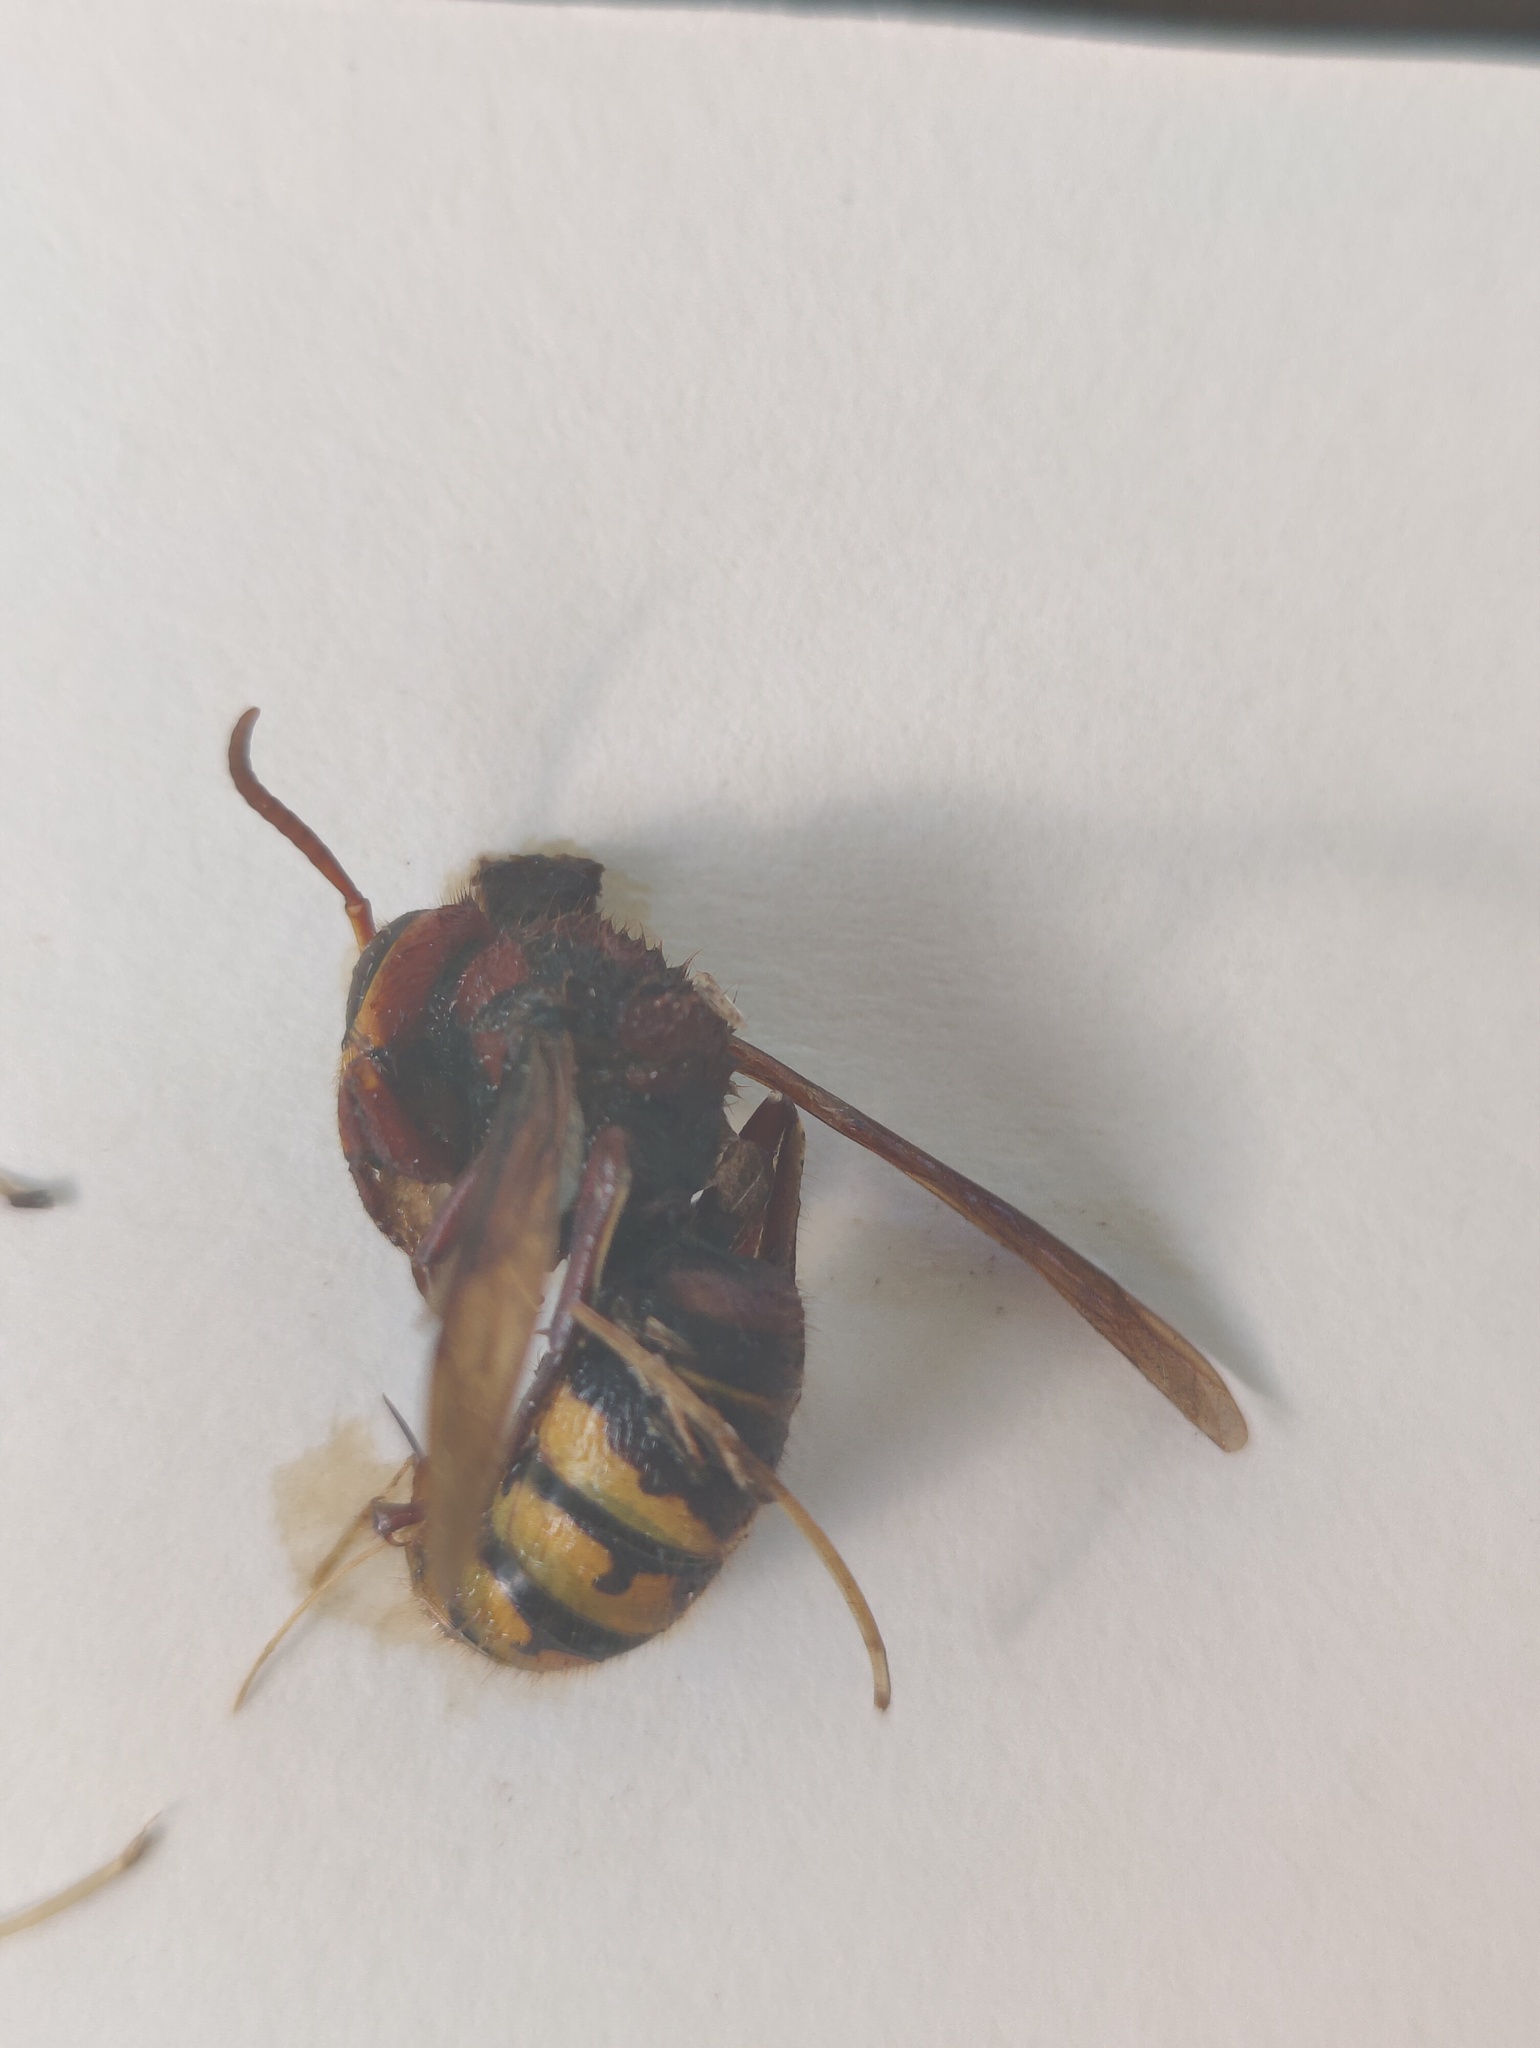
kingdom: Animalia
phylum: Arthropoda
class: Insecta
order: Hymenoptera
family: Vespidae
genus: Vespa
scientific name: Vespa crabro
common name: Hornet
